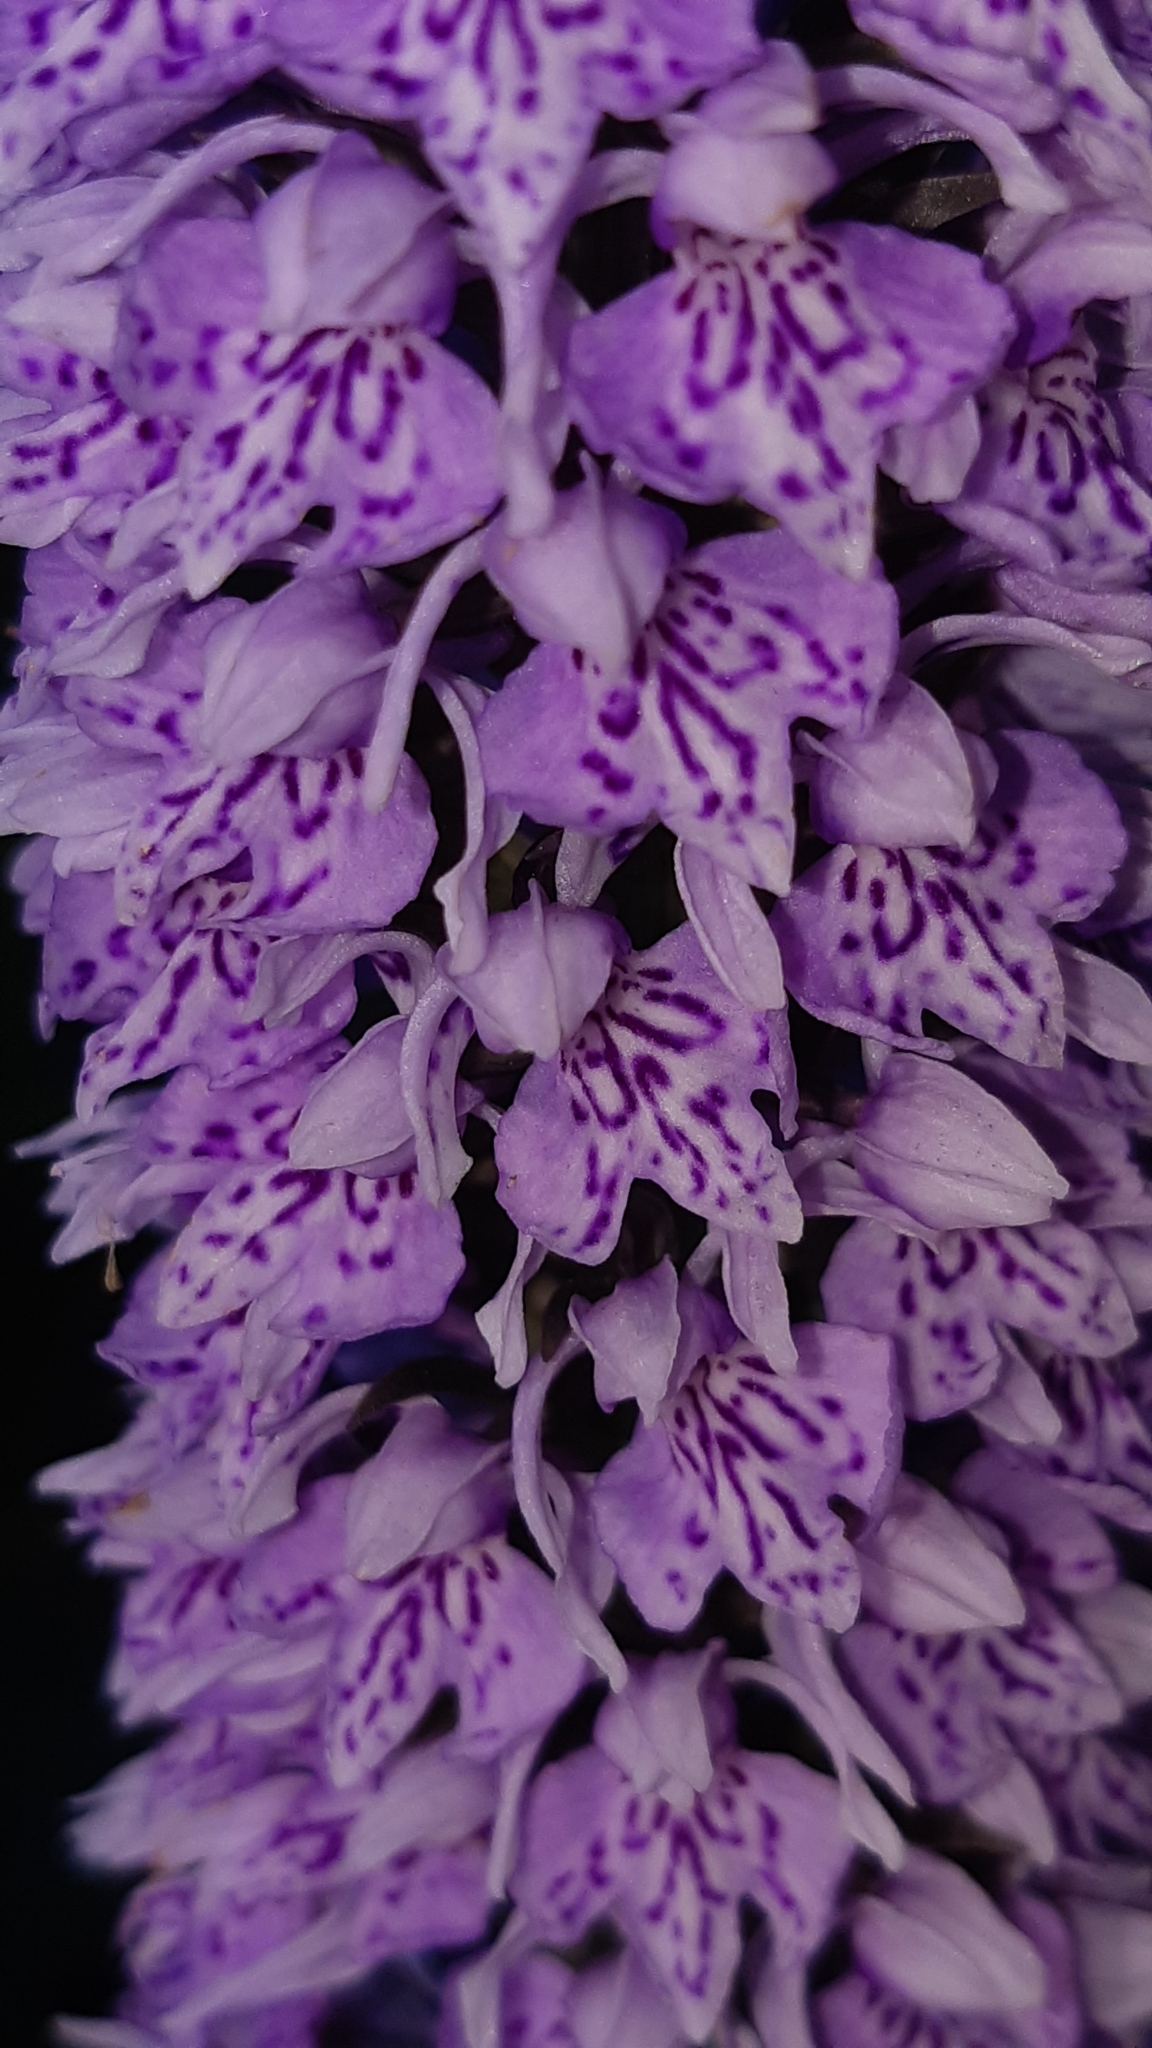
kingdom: Plantae
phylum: Tracheophyta
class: Liliopsida
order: Asparagales
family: Orchidaceae
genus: Dactylorhiza
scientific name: Dactylorhiza maculata
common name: Heath spotted-orchid
